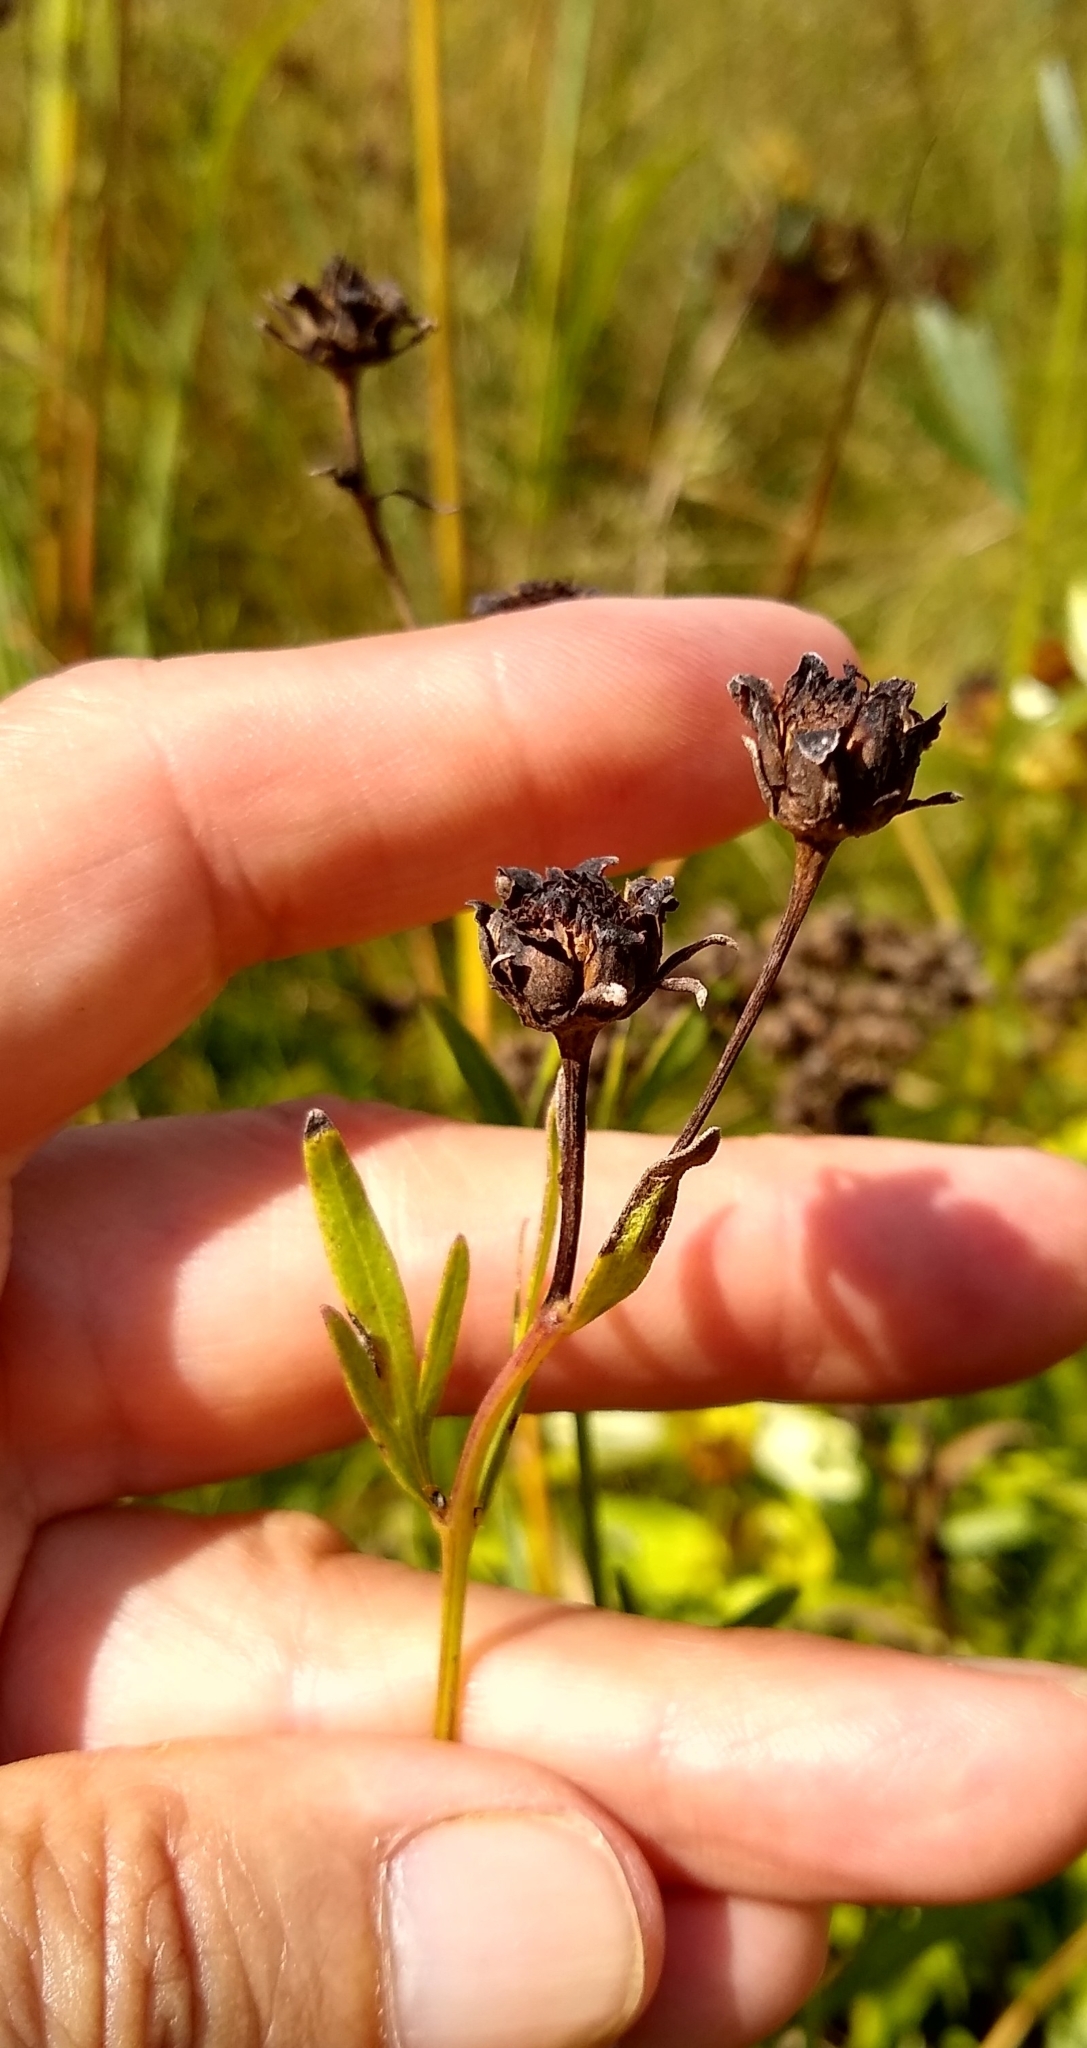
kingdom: Plantae
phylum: Tracheophyta
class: Magnoliopsida
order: Asterales
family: Asteraceae
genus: Coreopsis
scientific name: Coreopsis palmata
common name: Prairie coreopsis
